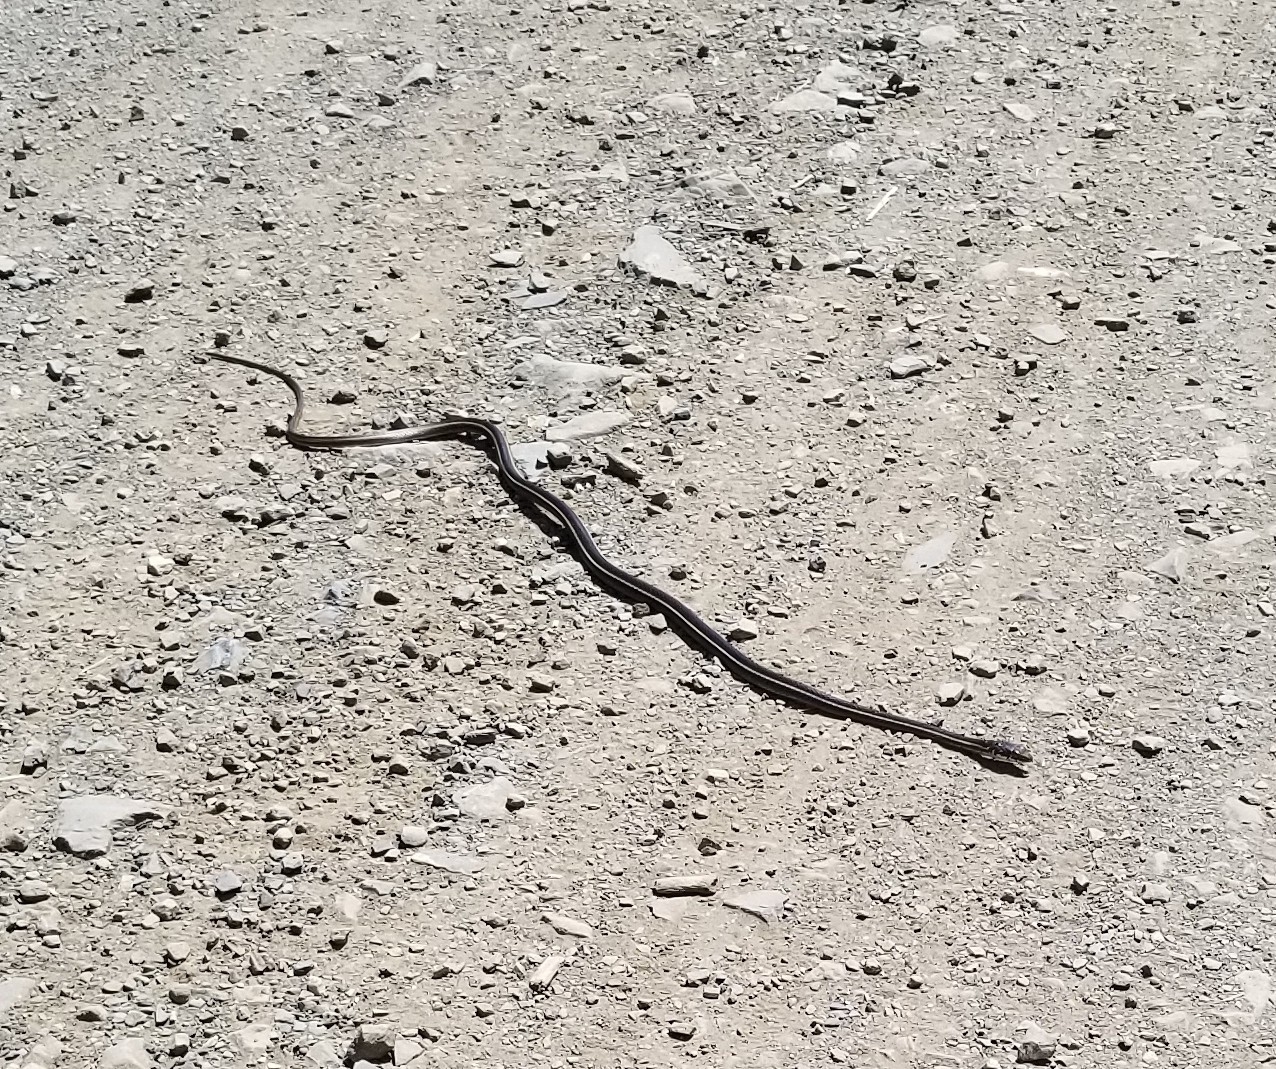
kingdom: Animalia
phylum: Chordata
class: Squamata
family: Colubridae
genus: Masticophis
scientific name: Masticophis lateralis
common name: Striped racer
